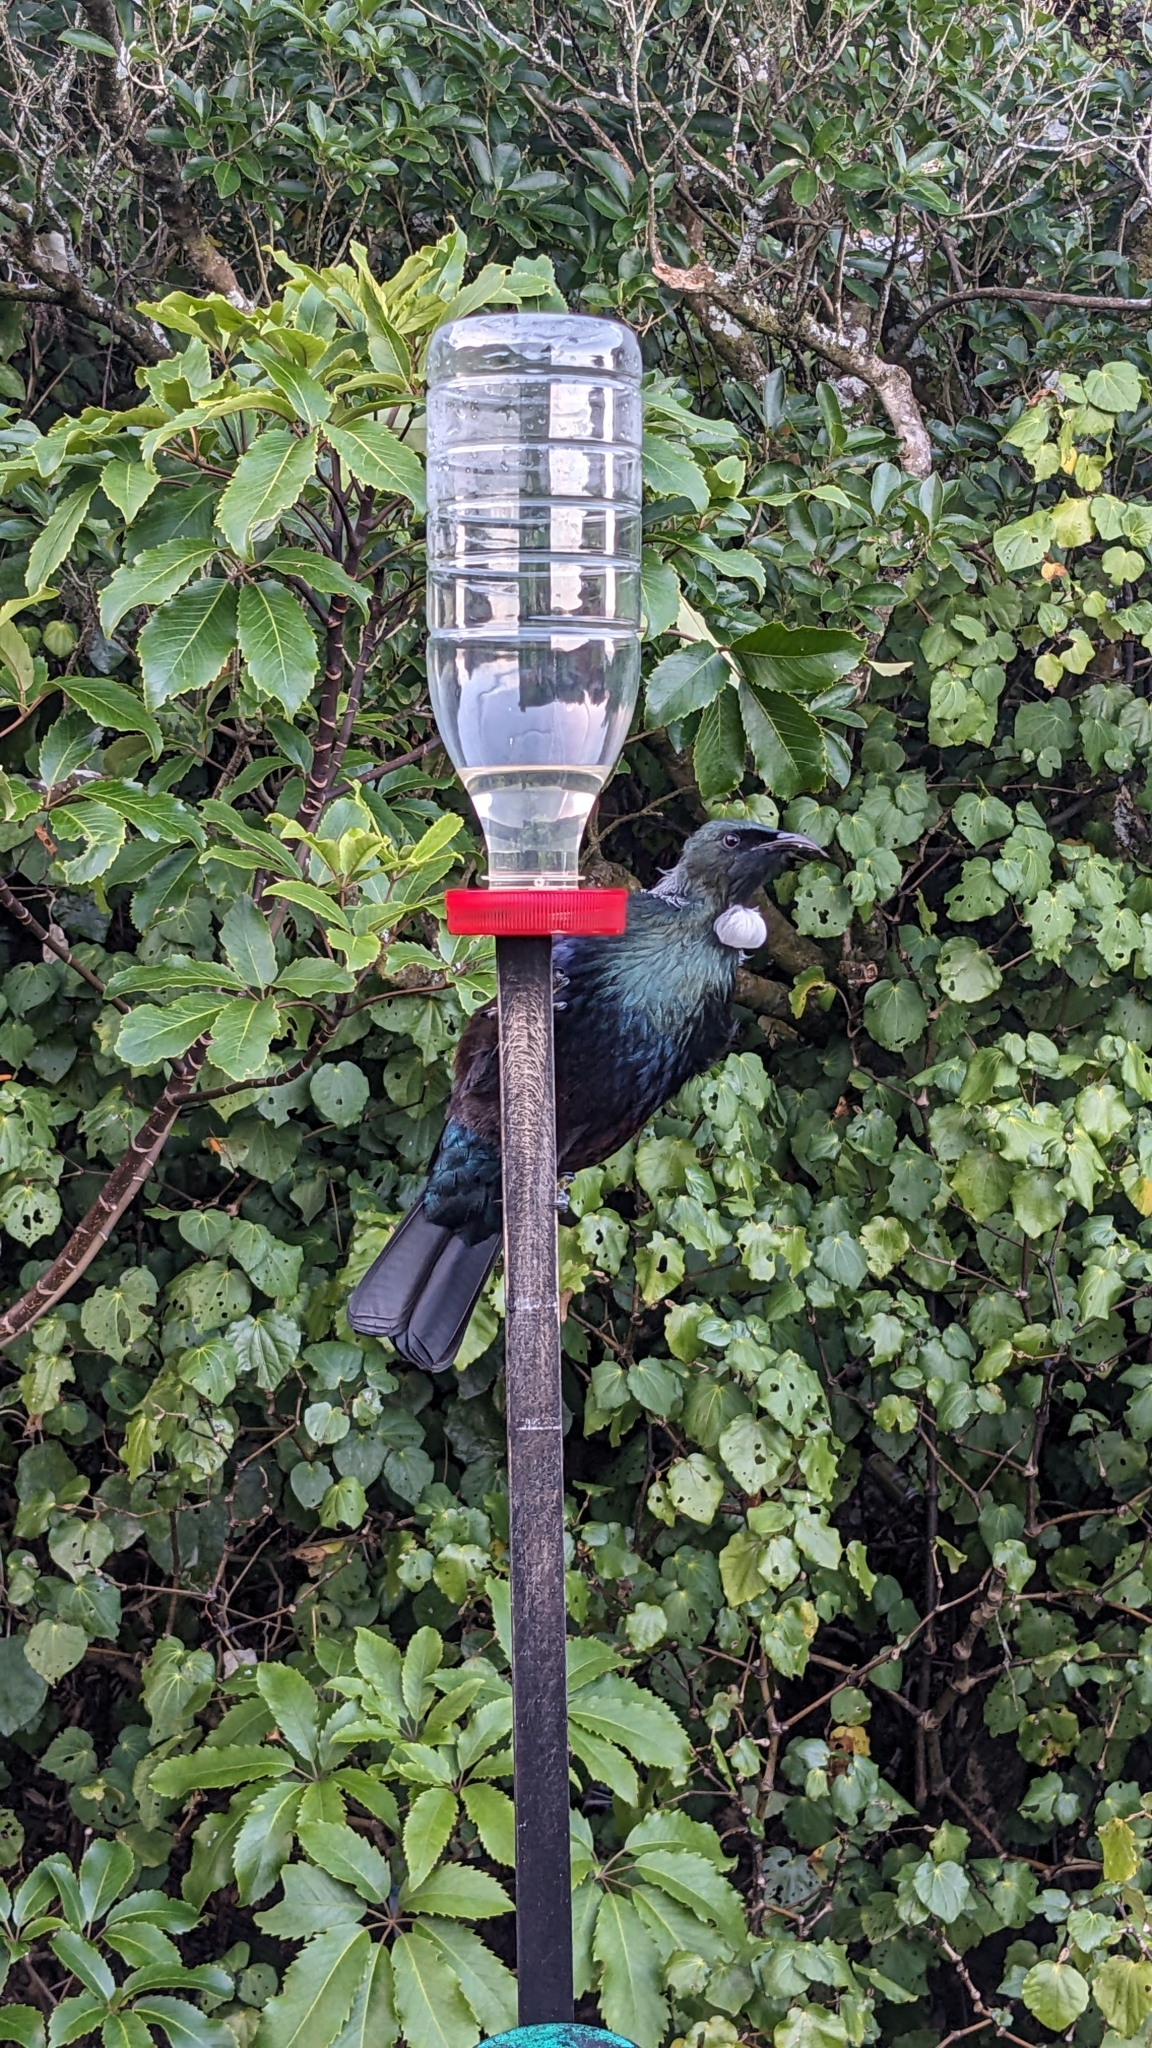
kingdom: Animalia
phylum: Chordata
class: Aves
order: Passeriformes
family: Meliphagidae
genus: Prosthemadera
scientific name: Prosthemadera novaeseelandiae
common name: Tui
